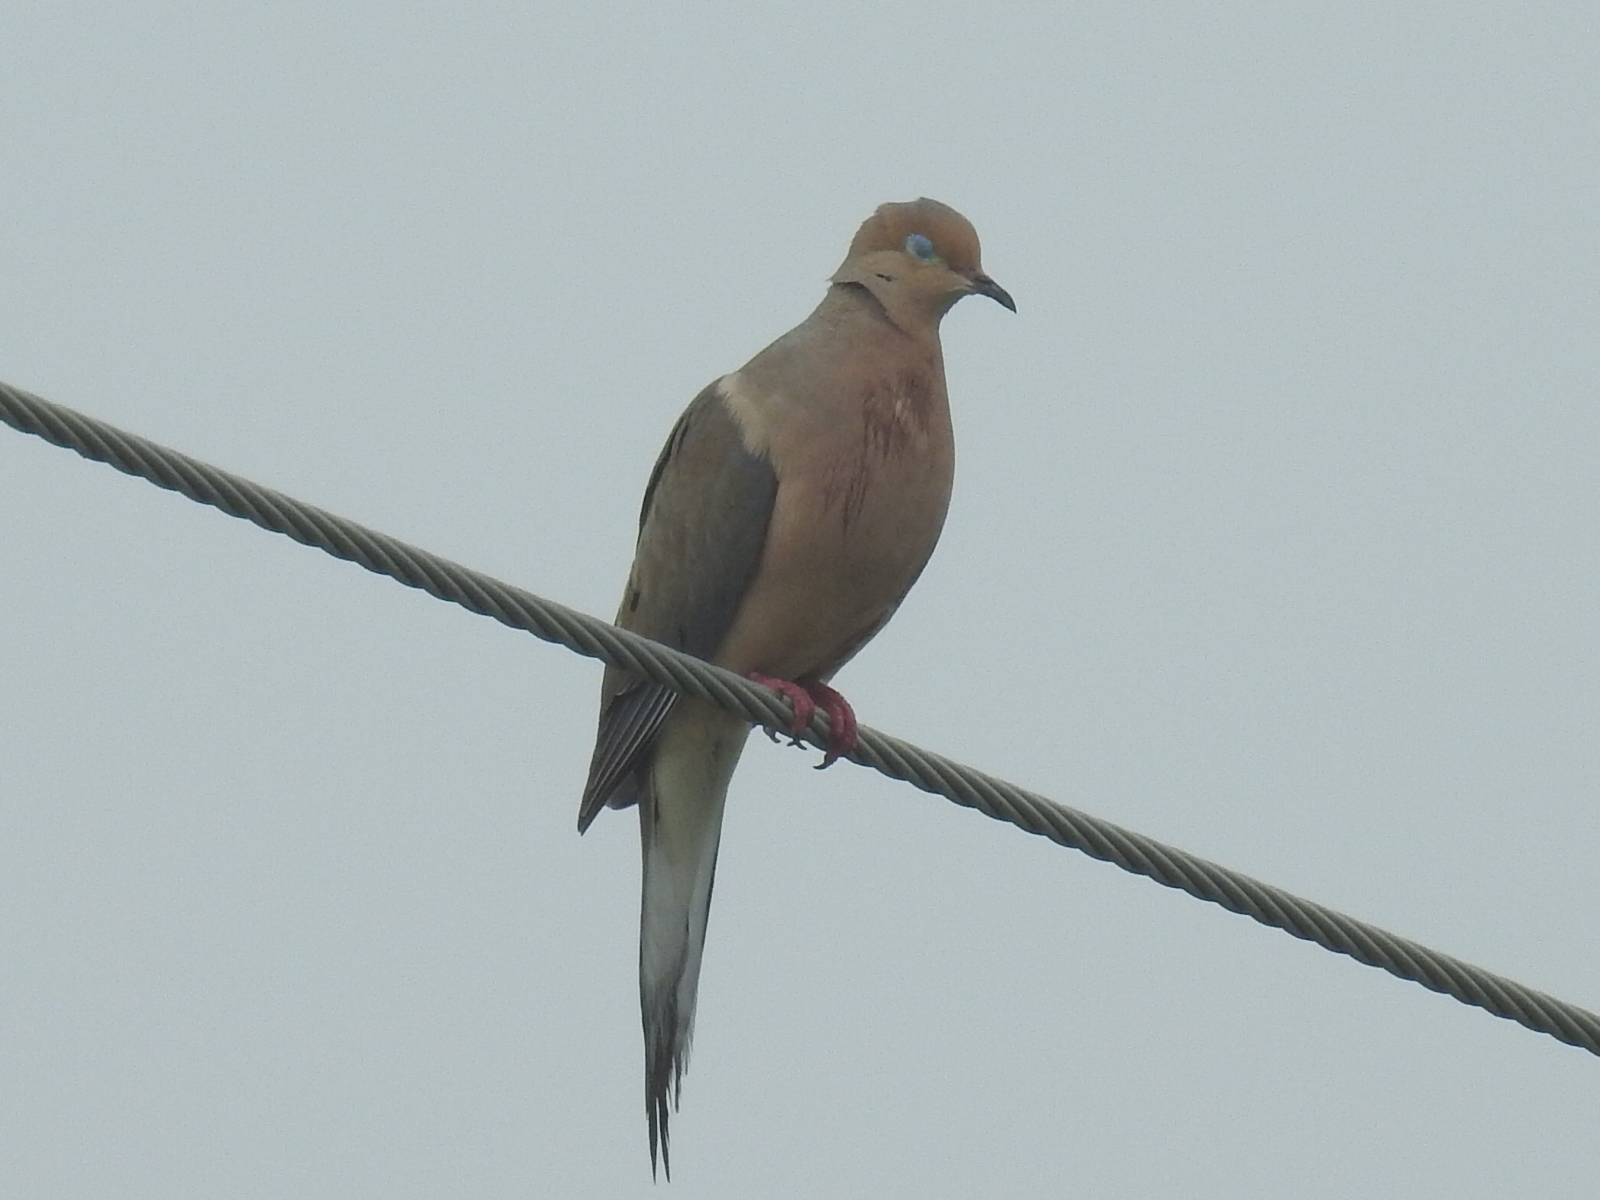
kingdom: Animalia
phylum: Chordata
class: Aves
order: Columbiformes
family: Columbidae
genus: Zenaida
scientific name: Zenaida macroura
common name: Mourning dove
